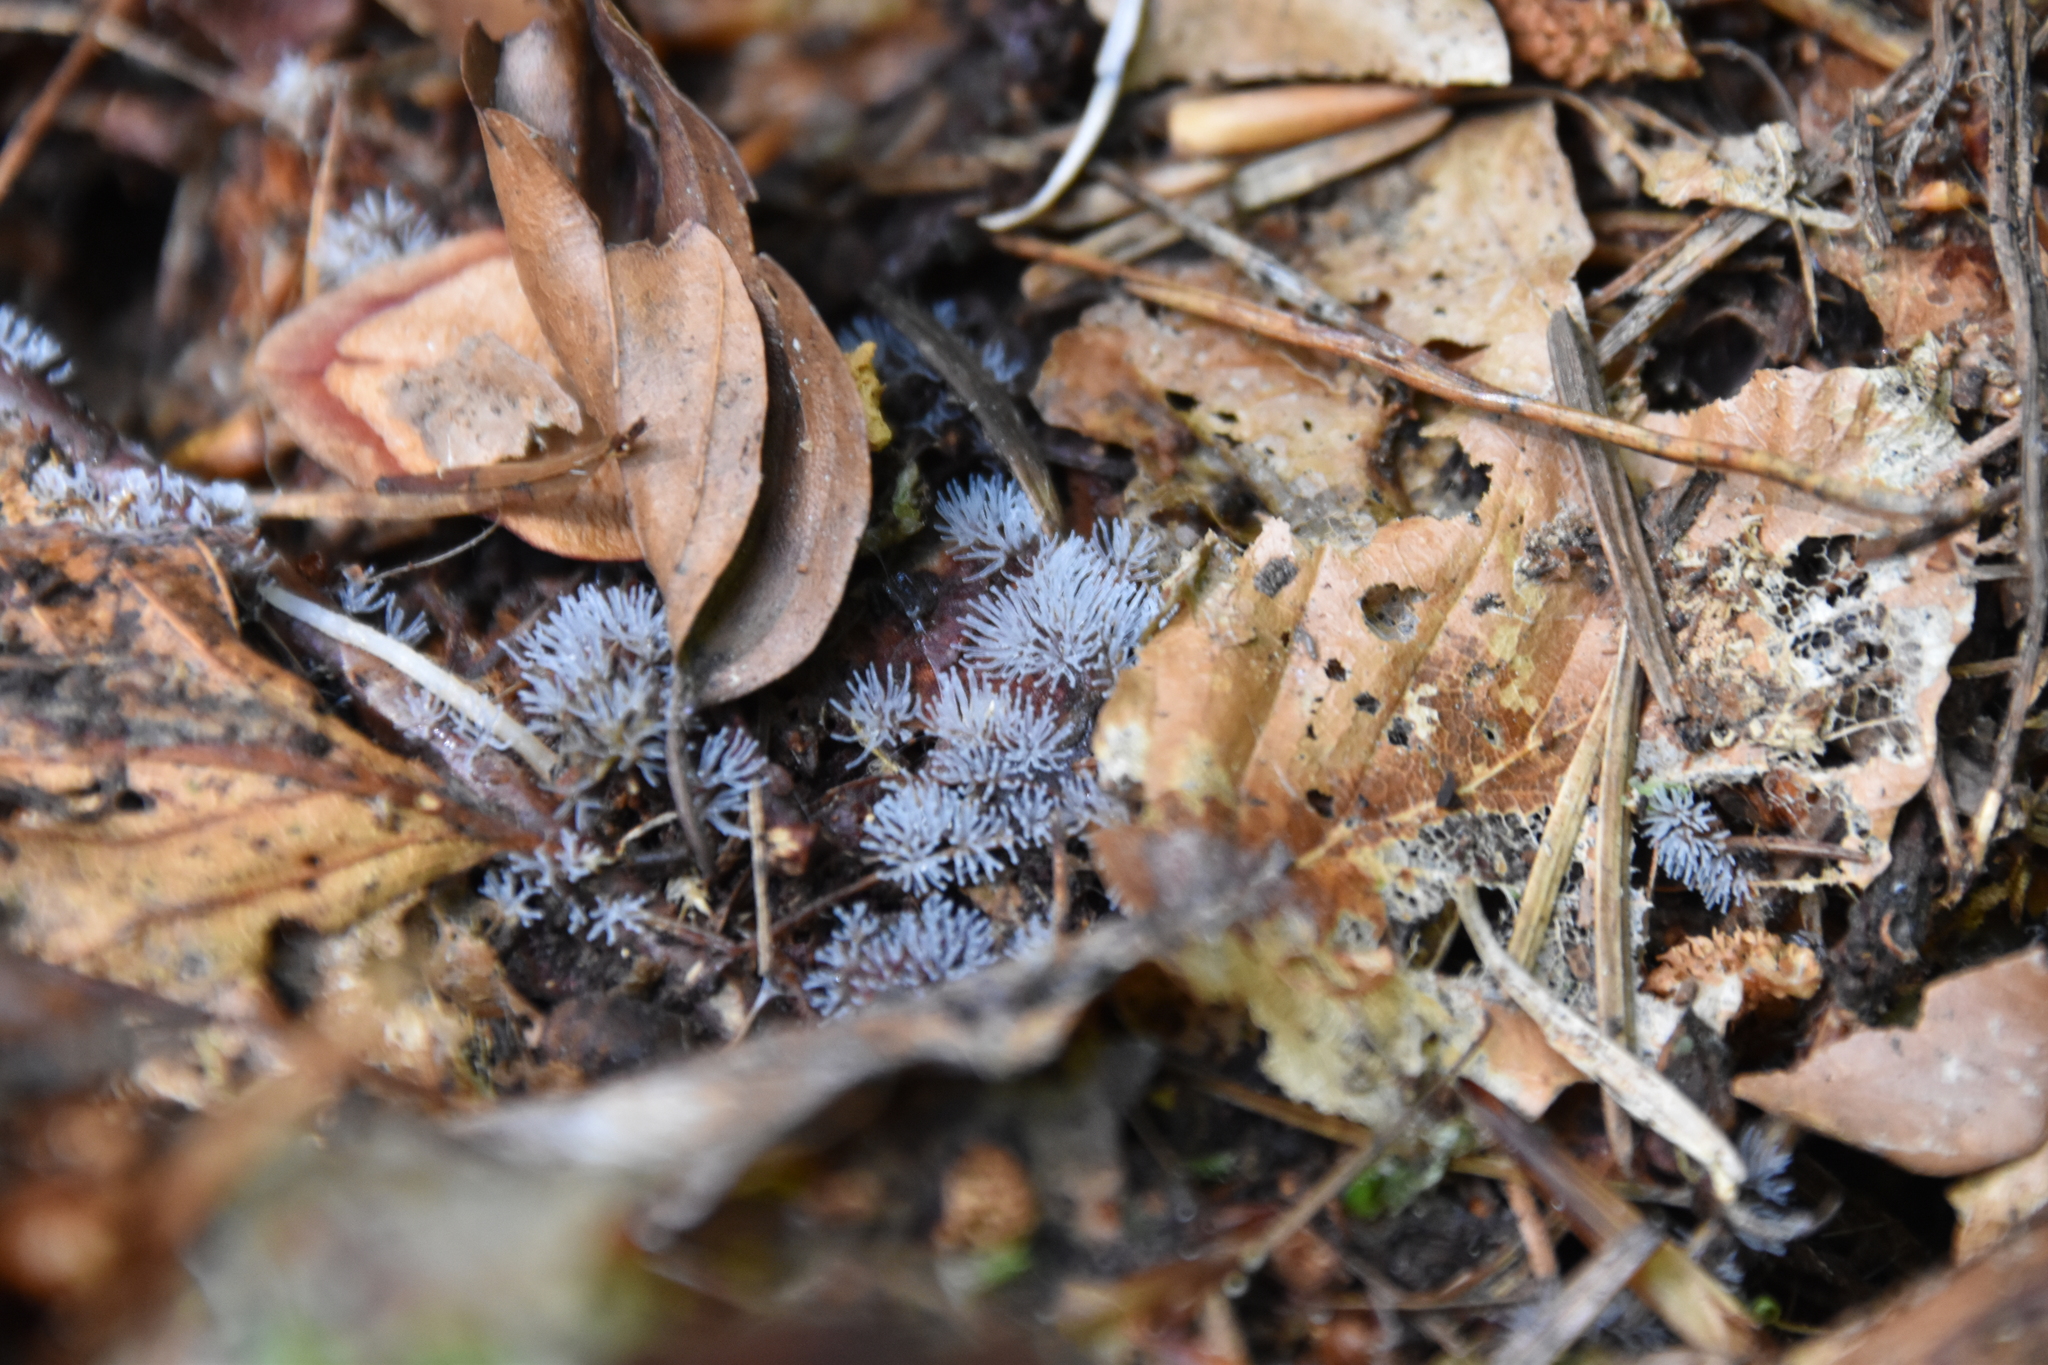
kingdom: Protozoa
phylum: Mycetozoa
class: Protosteliomycetes
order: Ceratiomyxales
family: Ceratiomyxaceae
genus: Ceratiomyxa
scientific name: Ceratiomyxa fruticulosa
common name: Honeycomb coral slime mold
